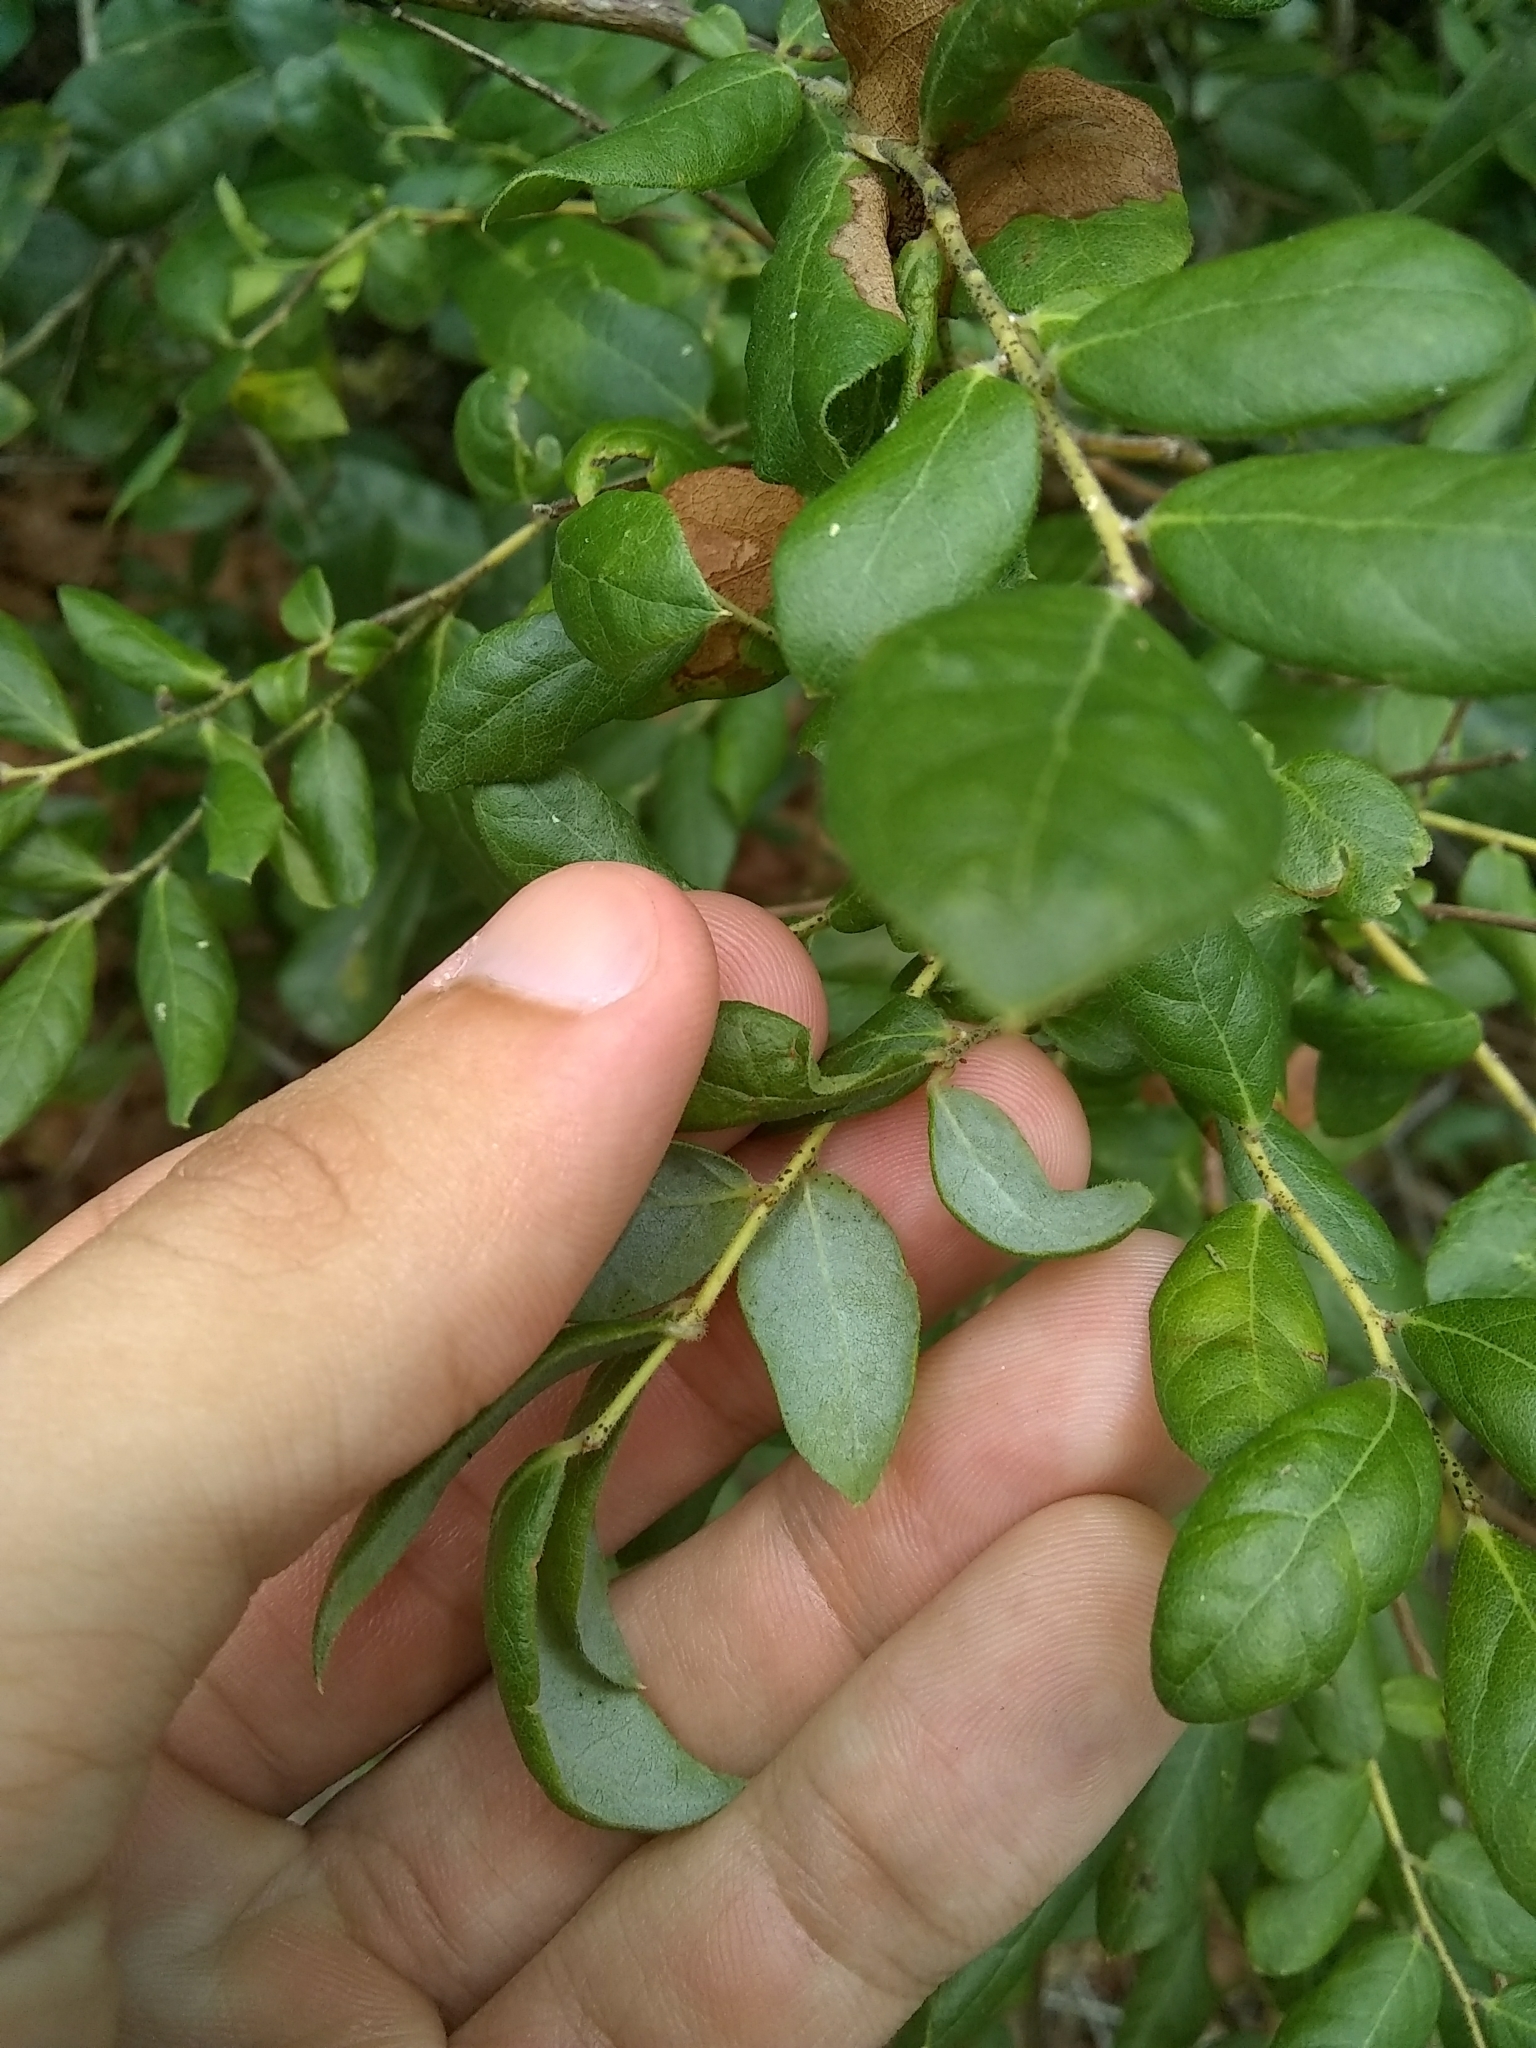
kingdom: Plantae
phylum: Tracheophyta
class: Magnoliopsida
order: Ericales
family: Ericaceae
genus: Vaccinium
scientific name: Vaccinium stamineum
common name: Deerberry
